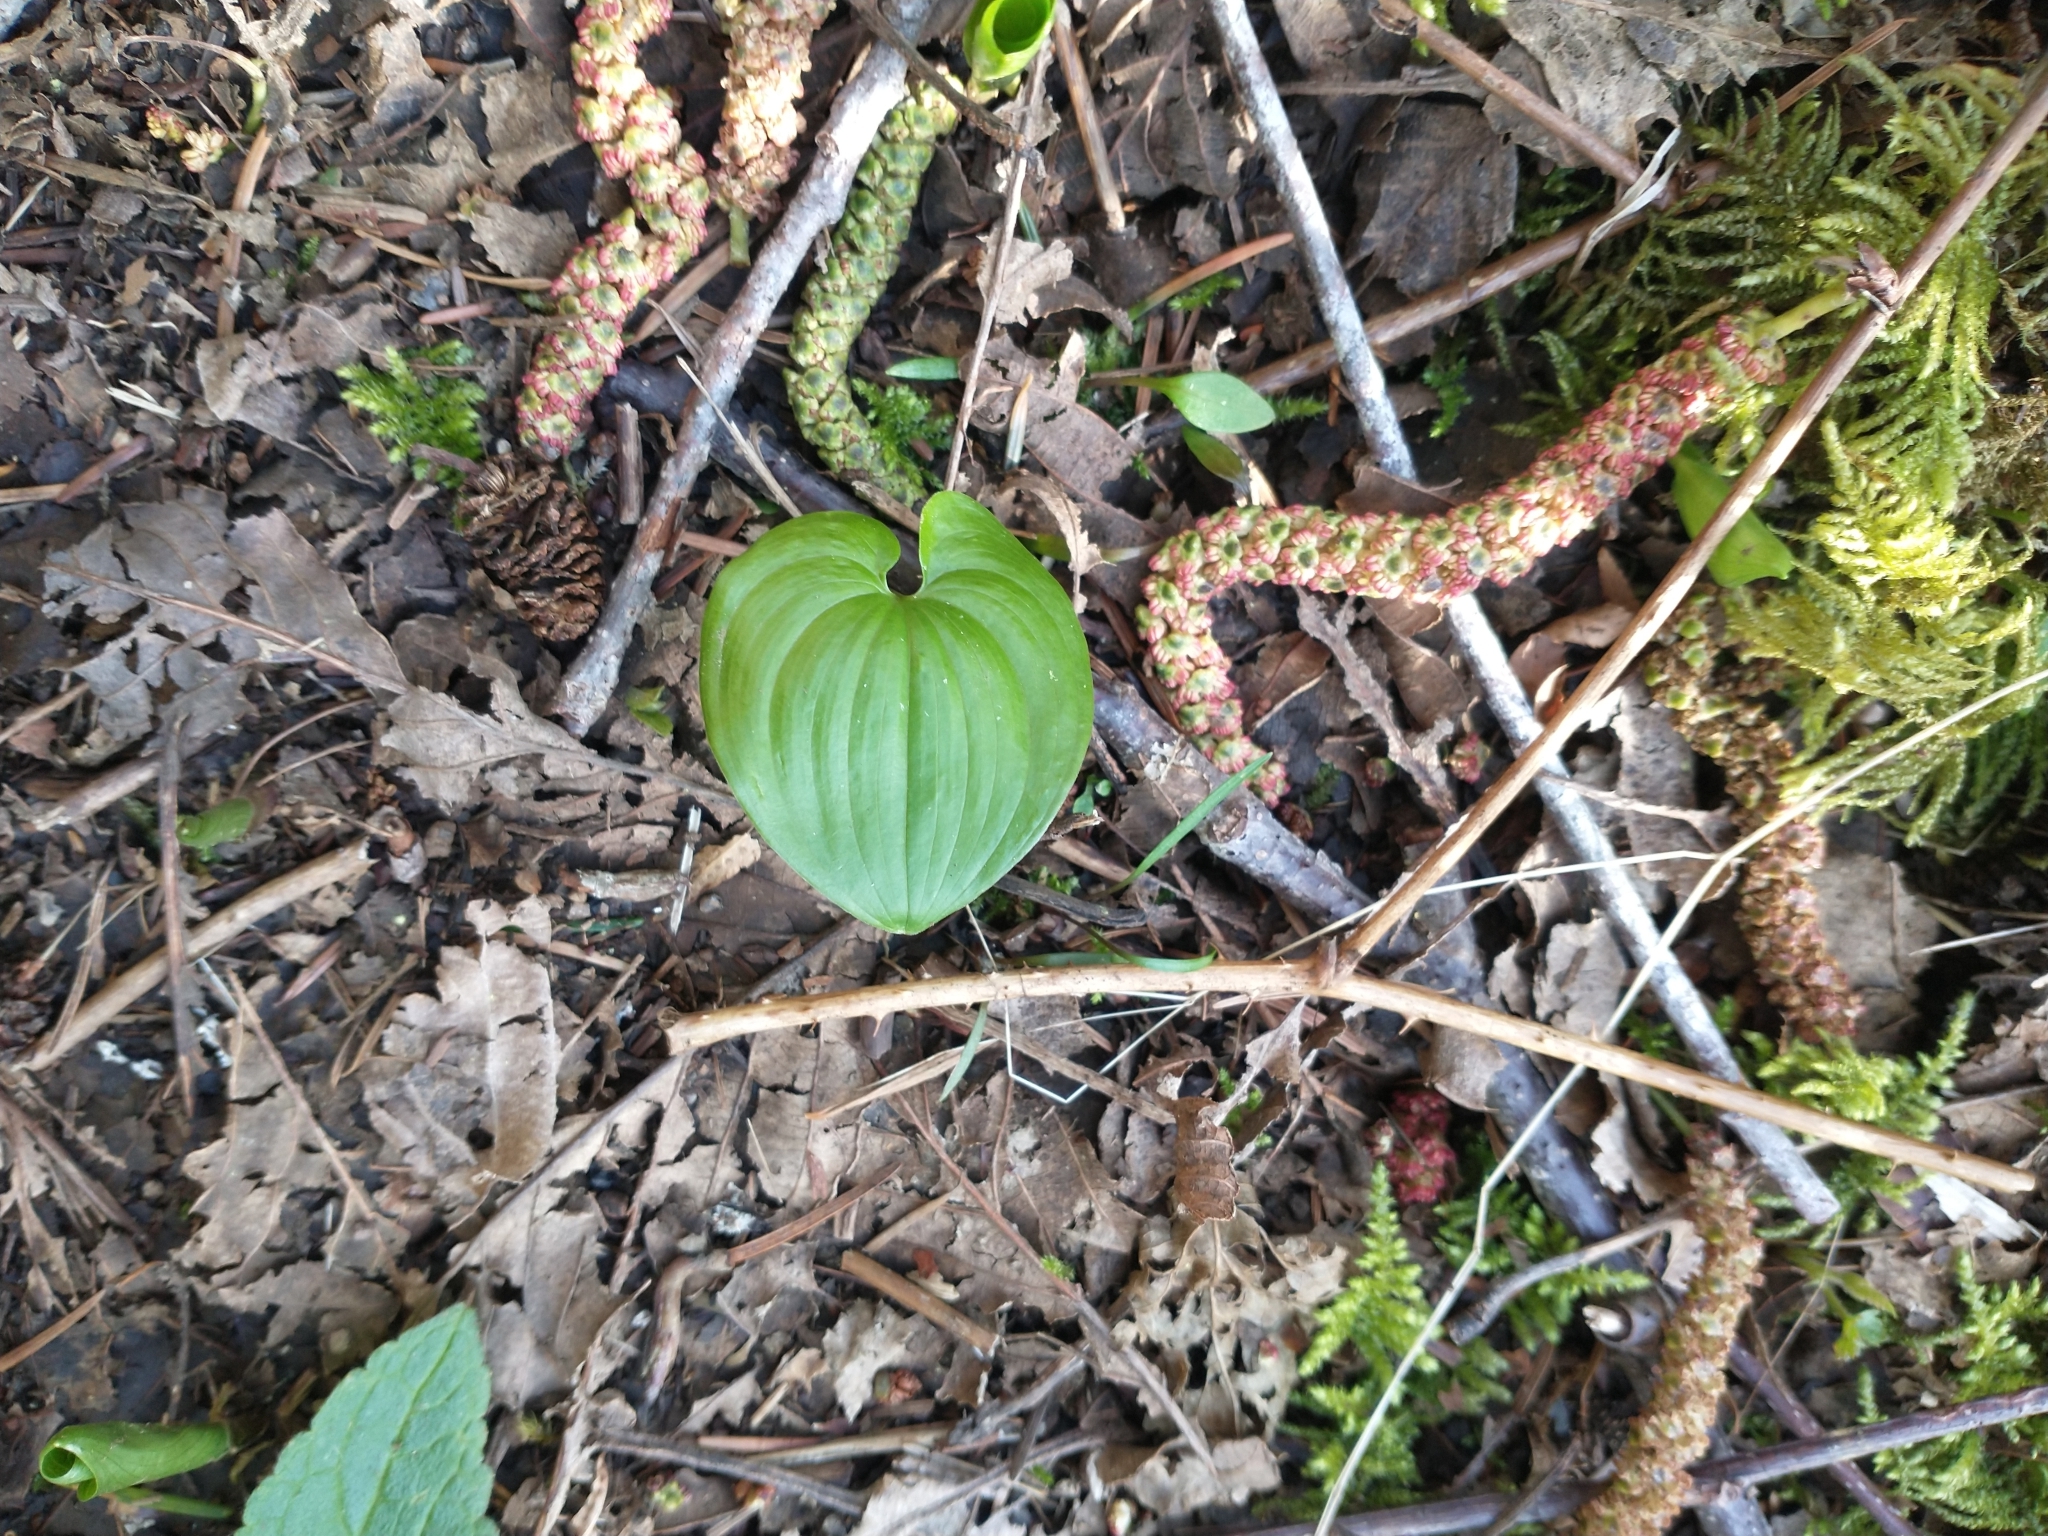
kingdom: Plantae
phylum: Tracheophyta
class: Liliopsida
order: Asparagales
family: Asparagaceae
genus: Maianthemum
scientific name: Maianthemum dilatatum
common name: False lily-of-the-valley
